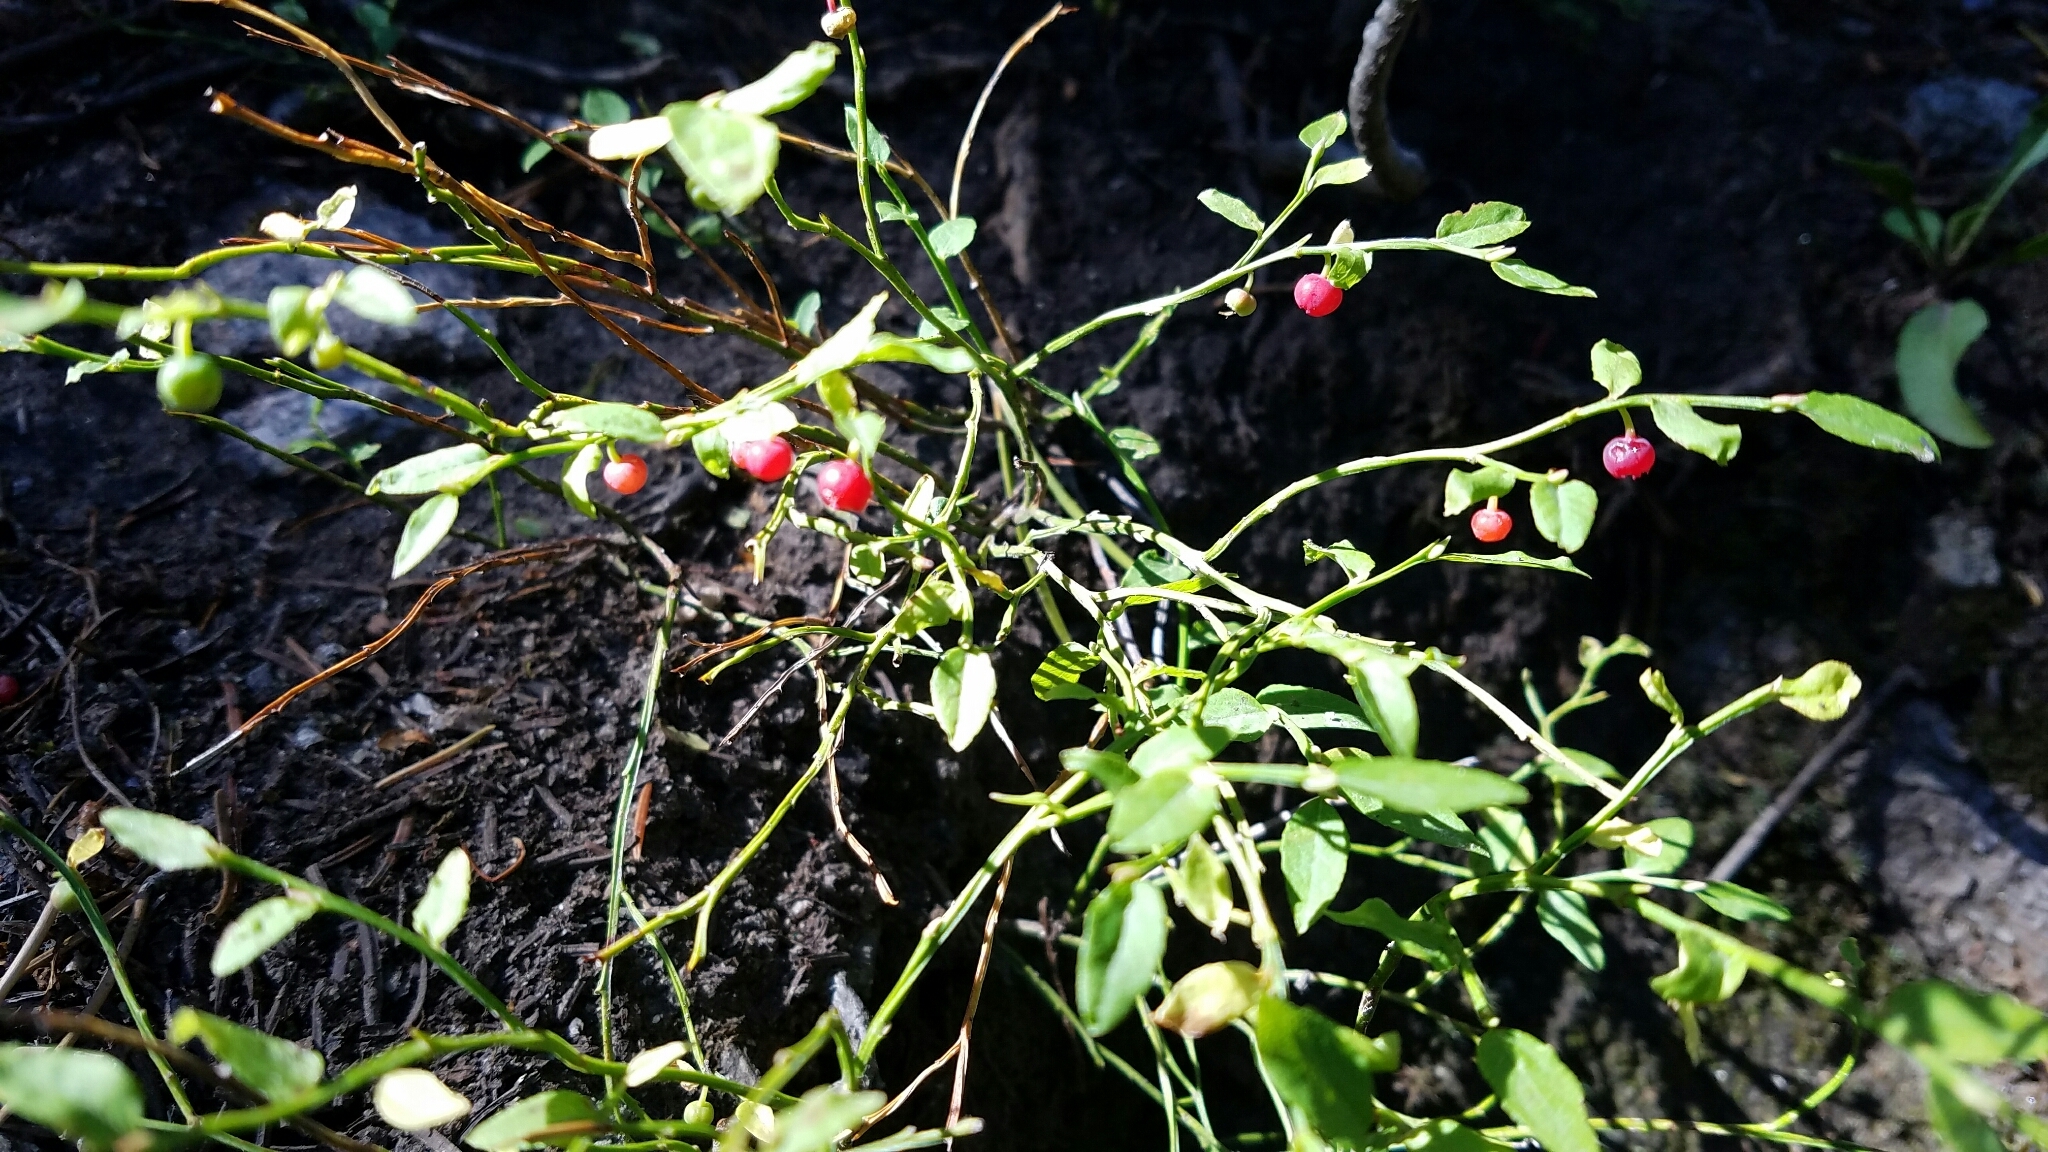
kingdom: Plantae
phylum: Tracheophyta
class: Magnoliopsida
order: Ericales
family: Ericaceae
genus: Vaccinium
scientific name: Vaccinium scoparium
